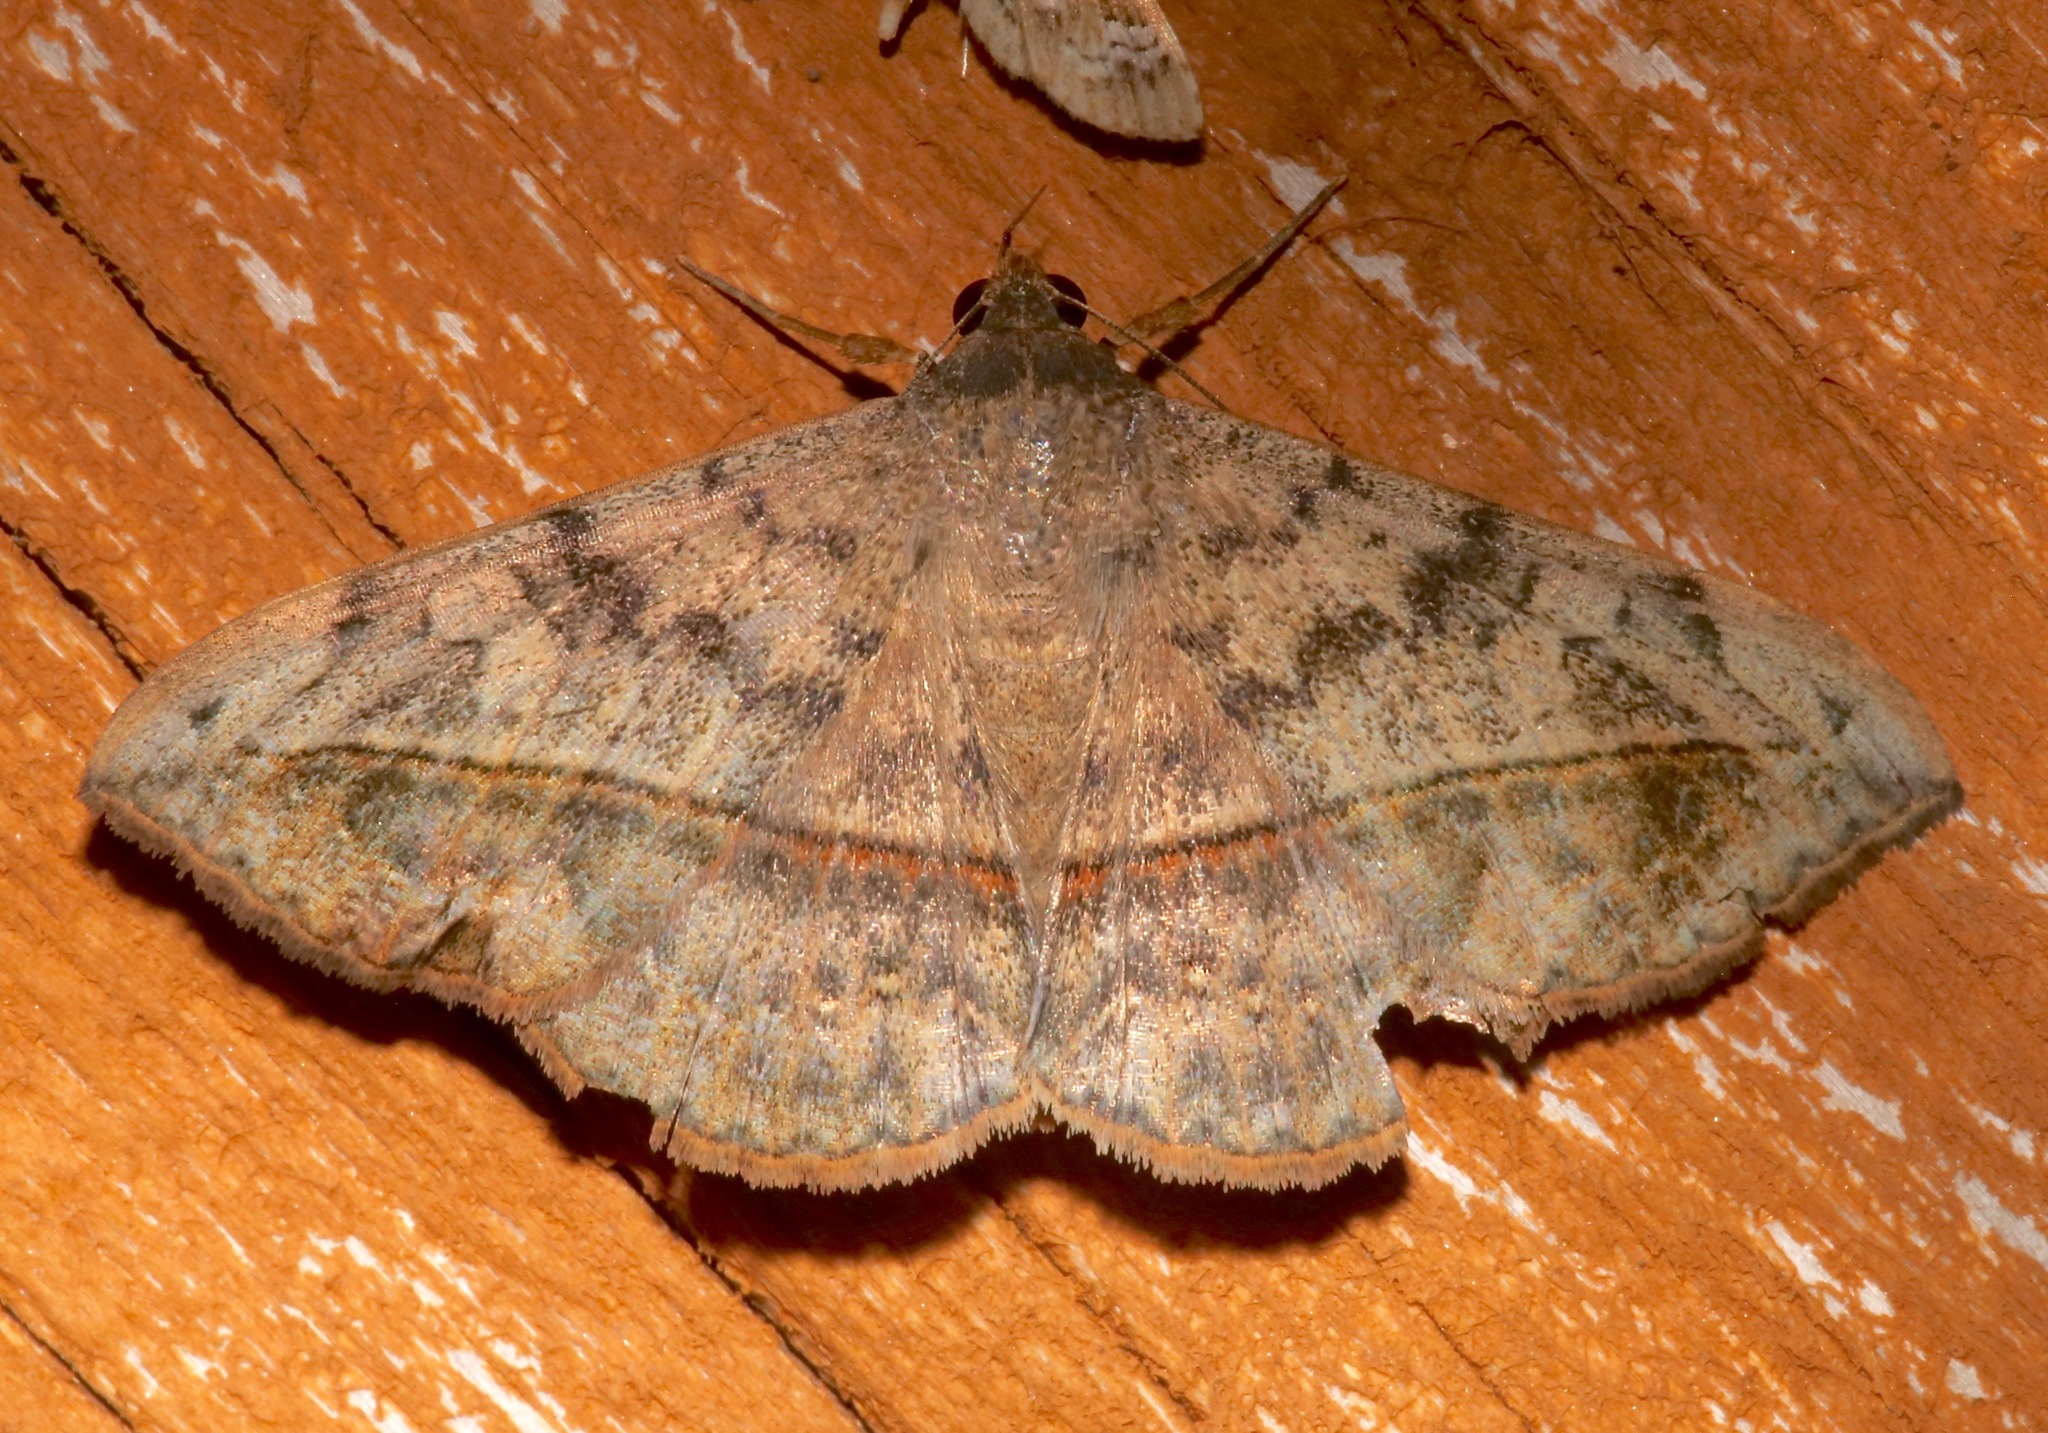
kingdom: Animalia
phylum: Arthropoda
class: Insecta
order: Lepidoptera
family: Erebidae
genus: Anticarsia
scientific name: Anticarsia gemmatalis
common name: Cutworm moth
